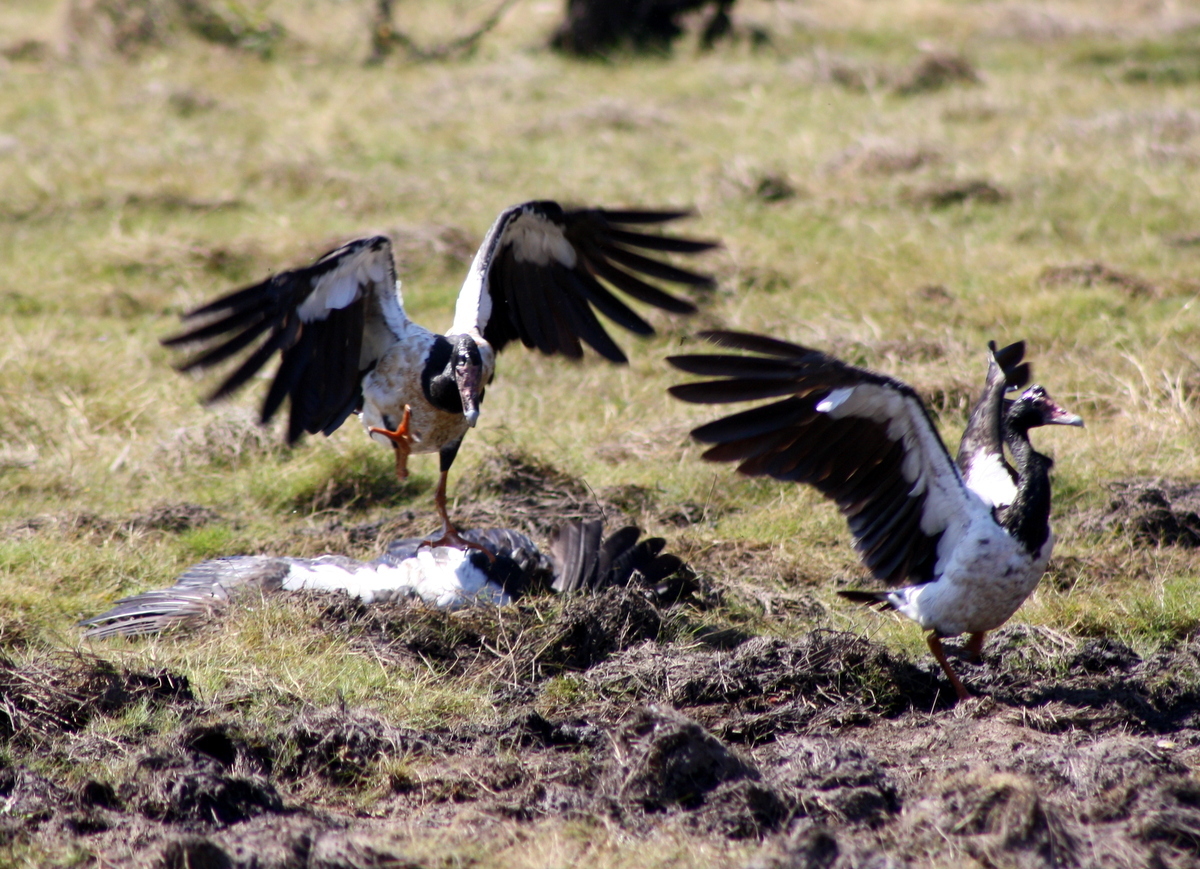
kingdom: Animalia
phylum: Chordata
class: Aves
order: Anseriformes
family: Anseranatidae
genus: Anseranas
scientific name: Anseranas semipalmata
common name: Magpie goose
